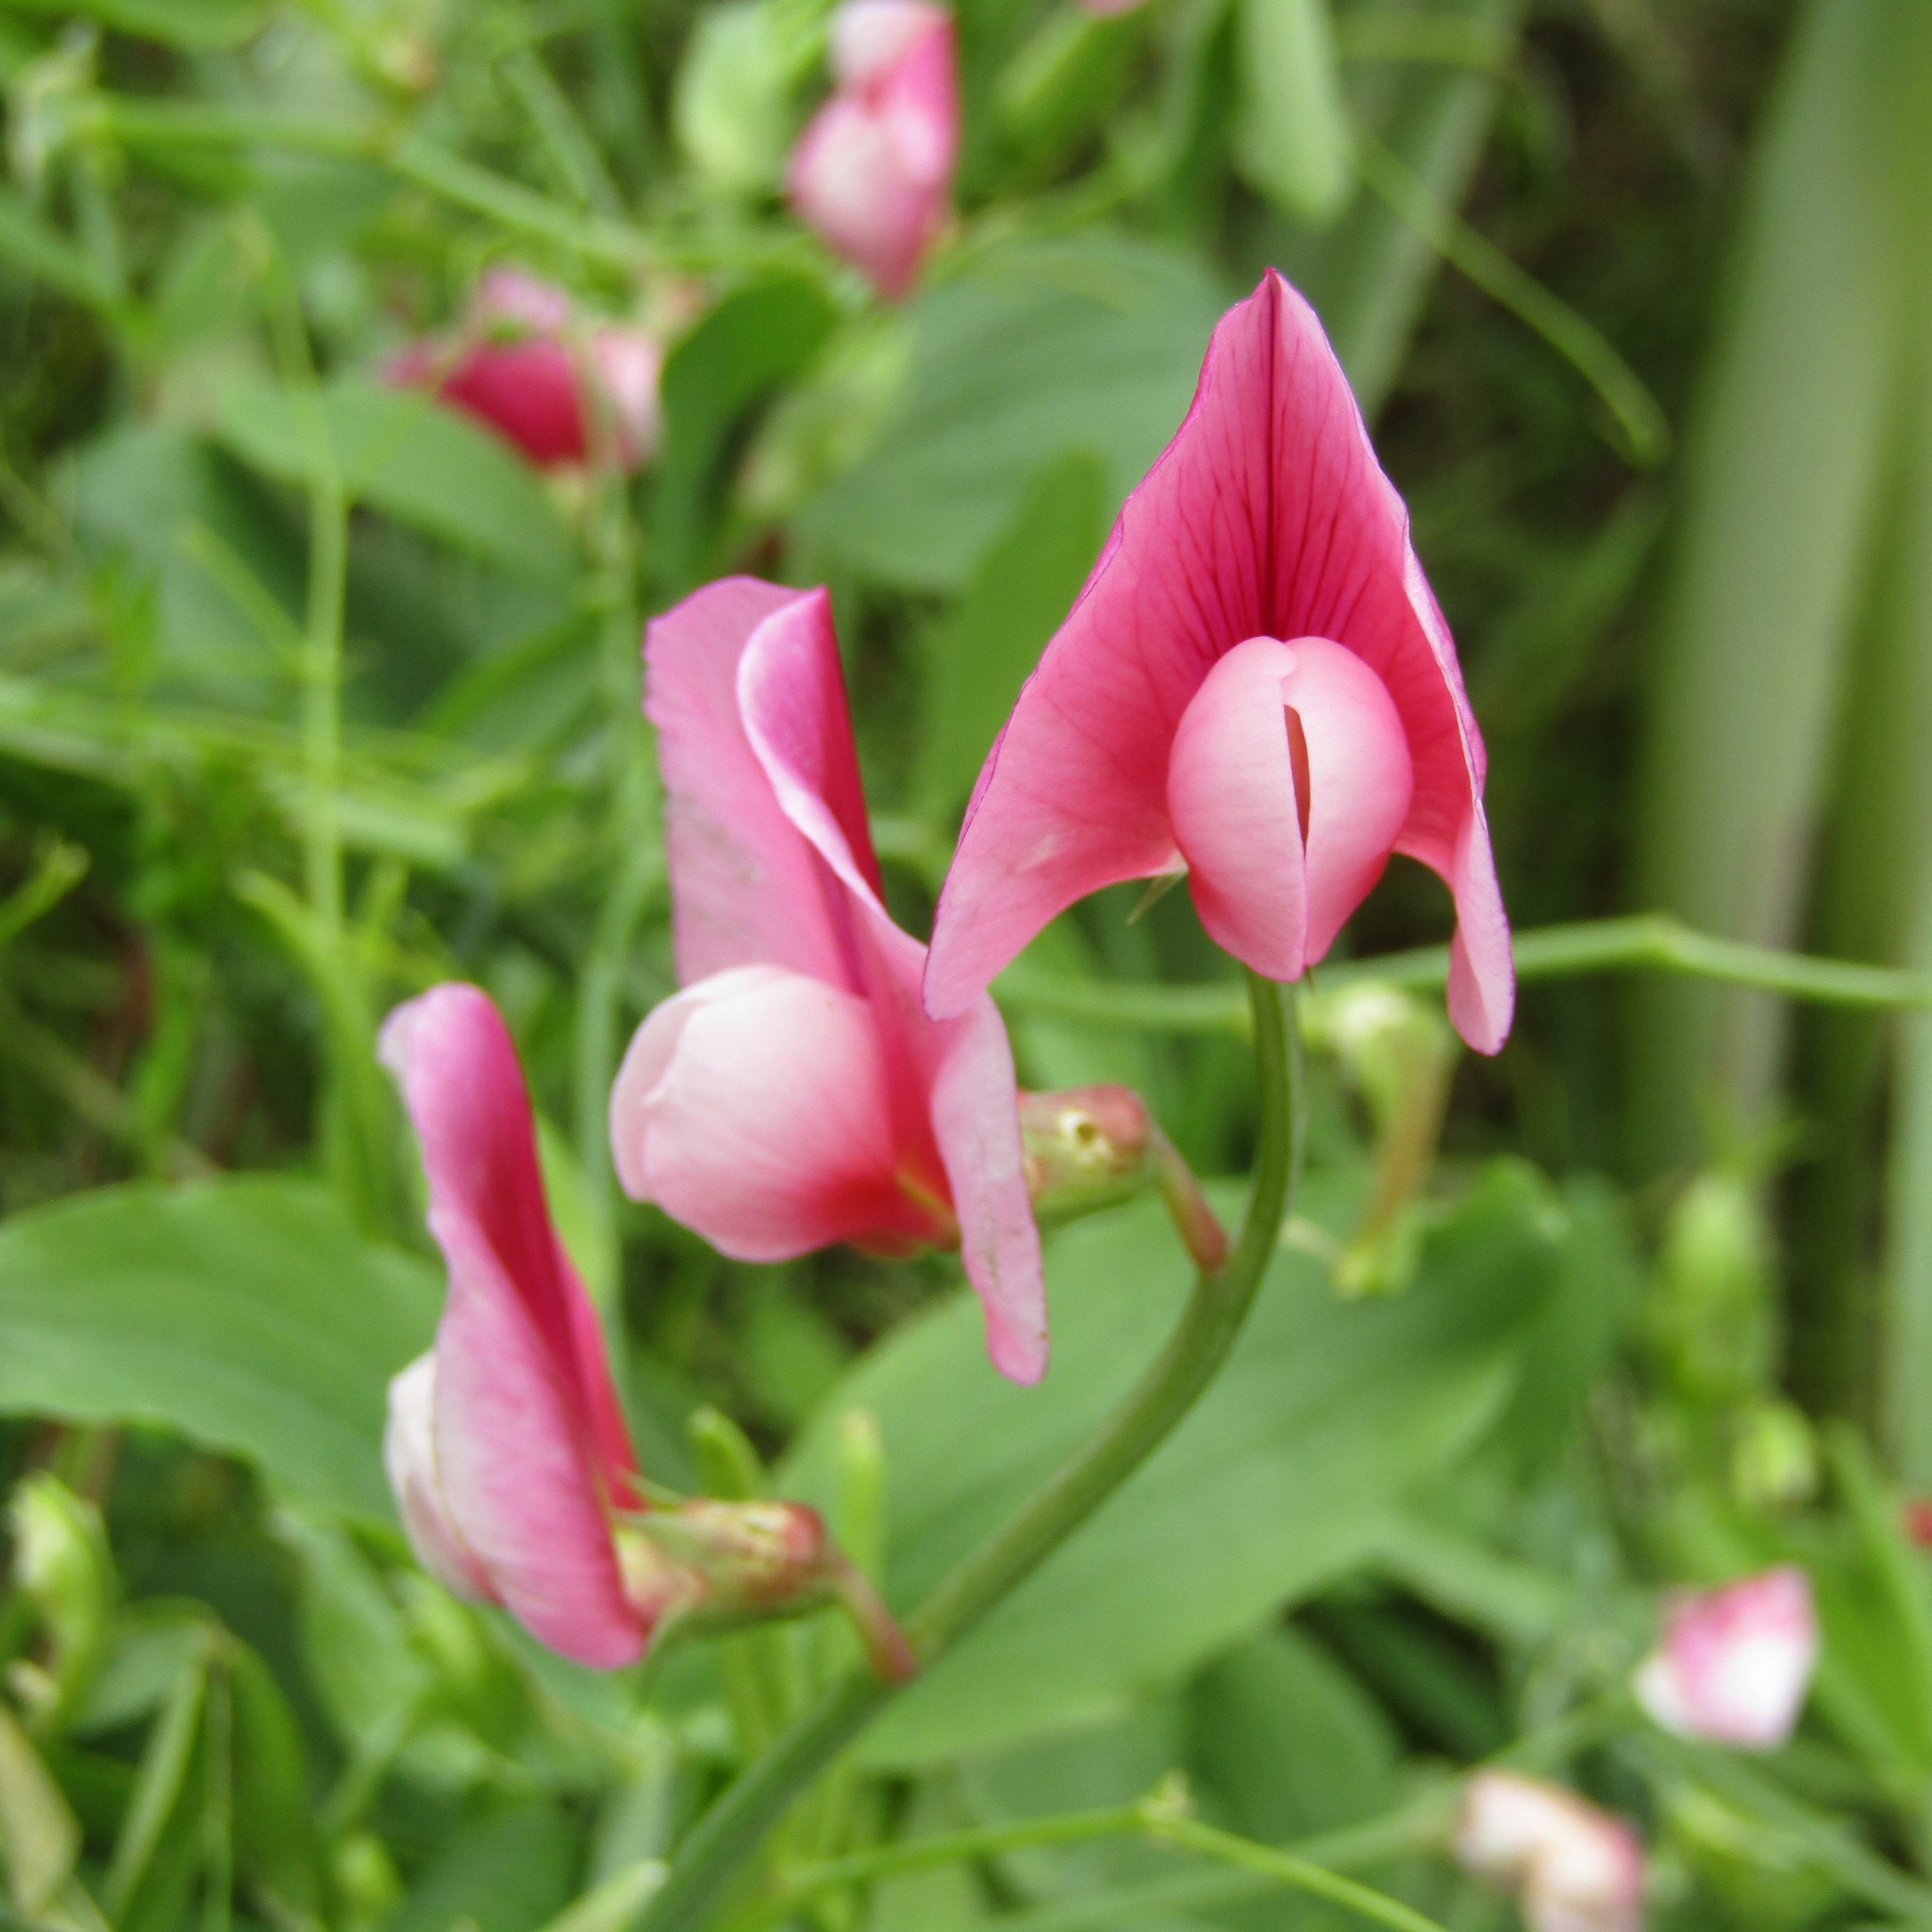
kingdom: Plantae
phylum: Tracheophyta
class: Magnoliopsida
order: Fabales
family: Fabaceae
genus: Lathyrus
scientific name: Lathyrus tingitanus
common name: Tangier pea
